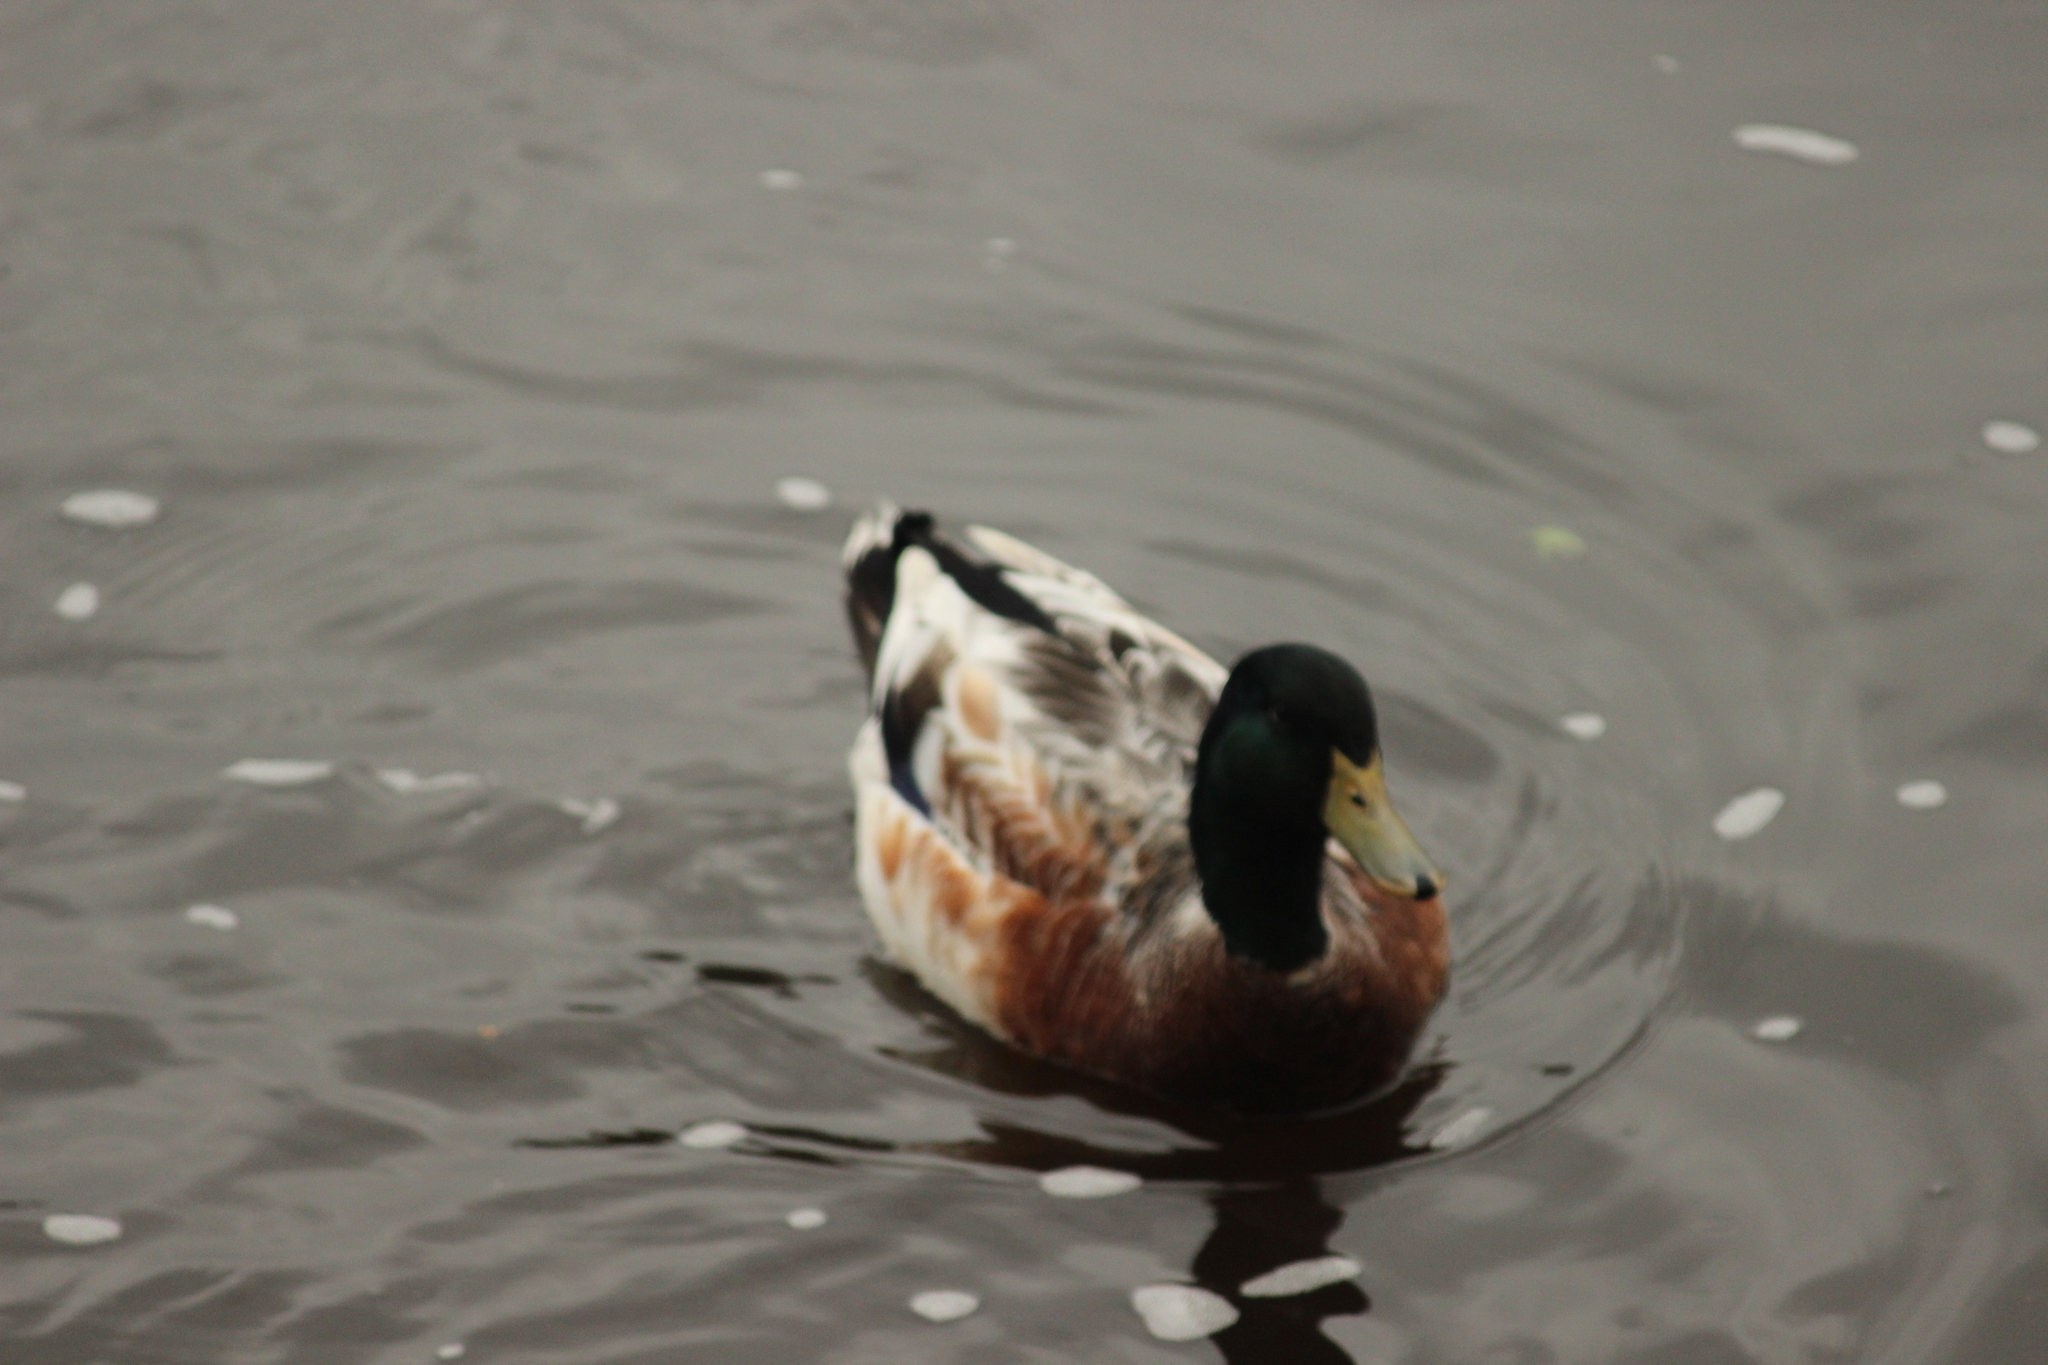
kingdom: Animalia
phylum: Chordata
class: Aves
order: Anseriformes
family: Anatidae
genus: Anas
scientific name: Anas platyrhynchos
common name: Mallard
